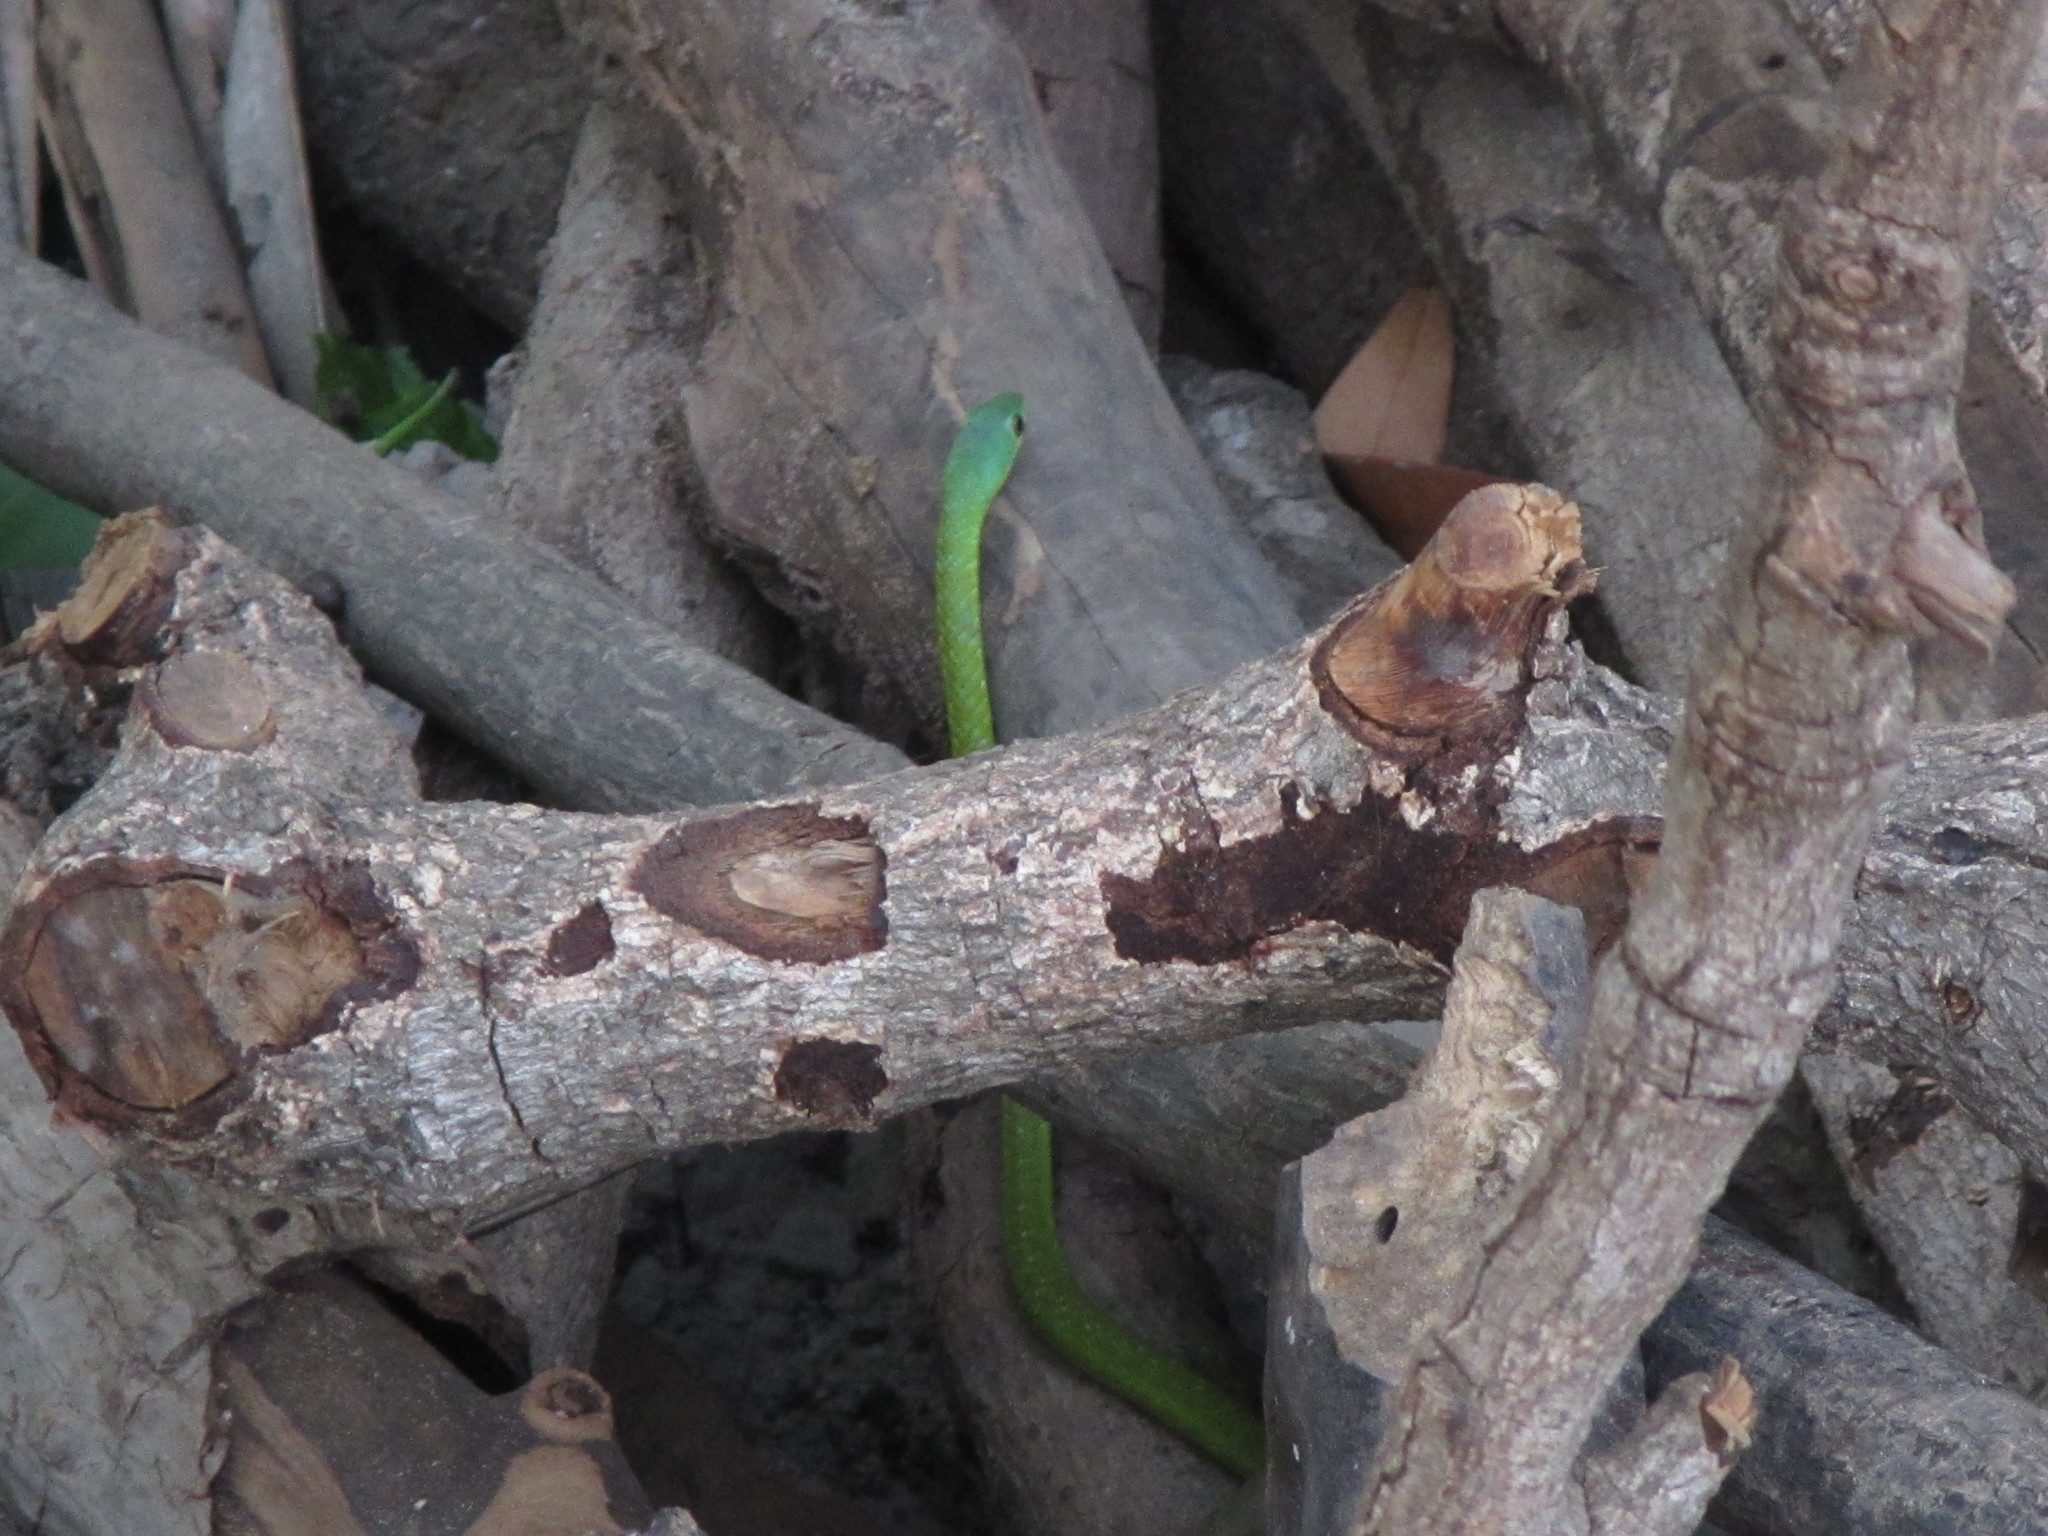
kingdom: Animalia
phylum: Chordata
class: Squamata
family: Colubridae
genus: Philothamnus
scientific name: Philothamnus irregularis
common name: Irregular green snake
